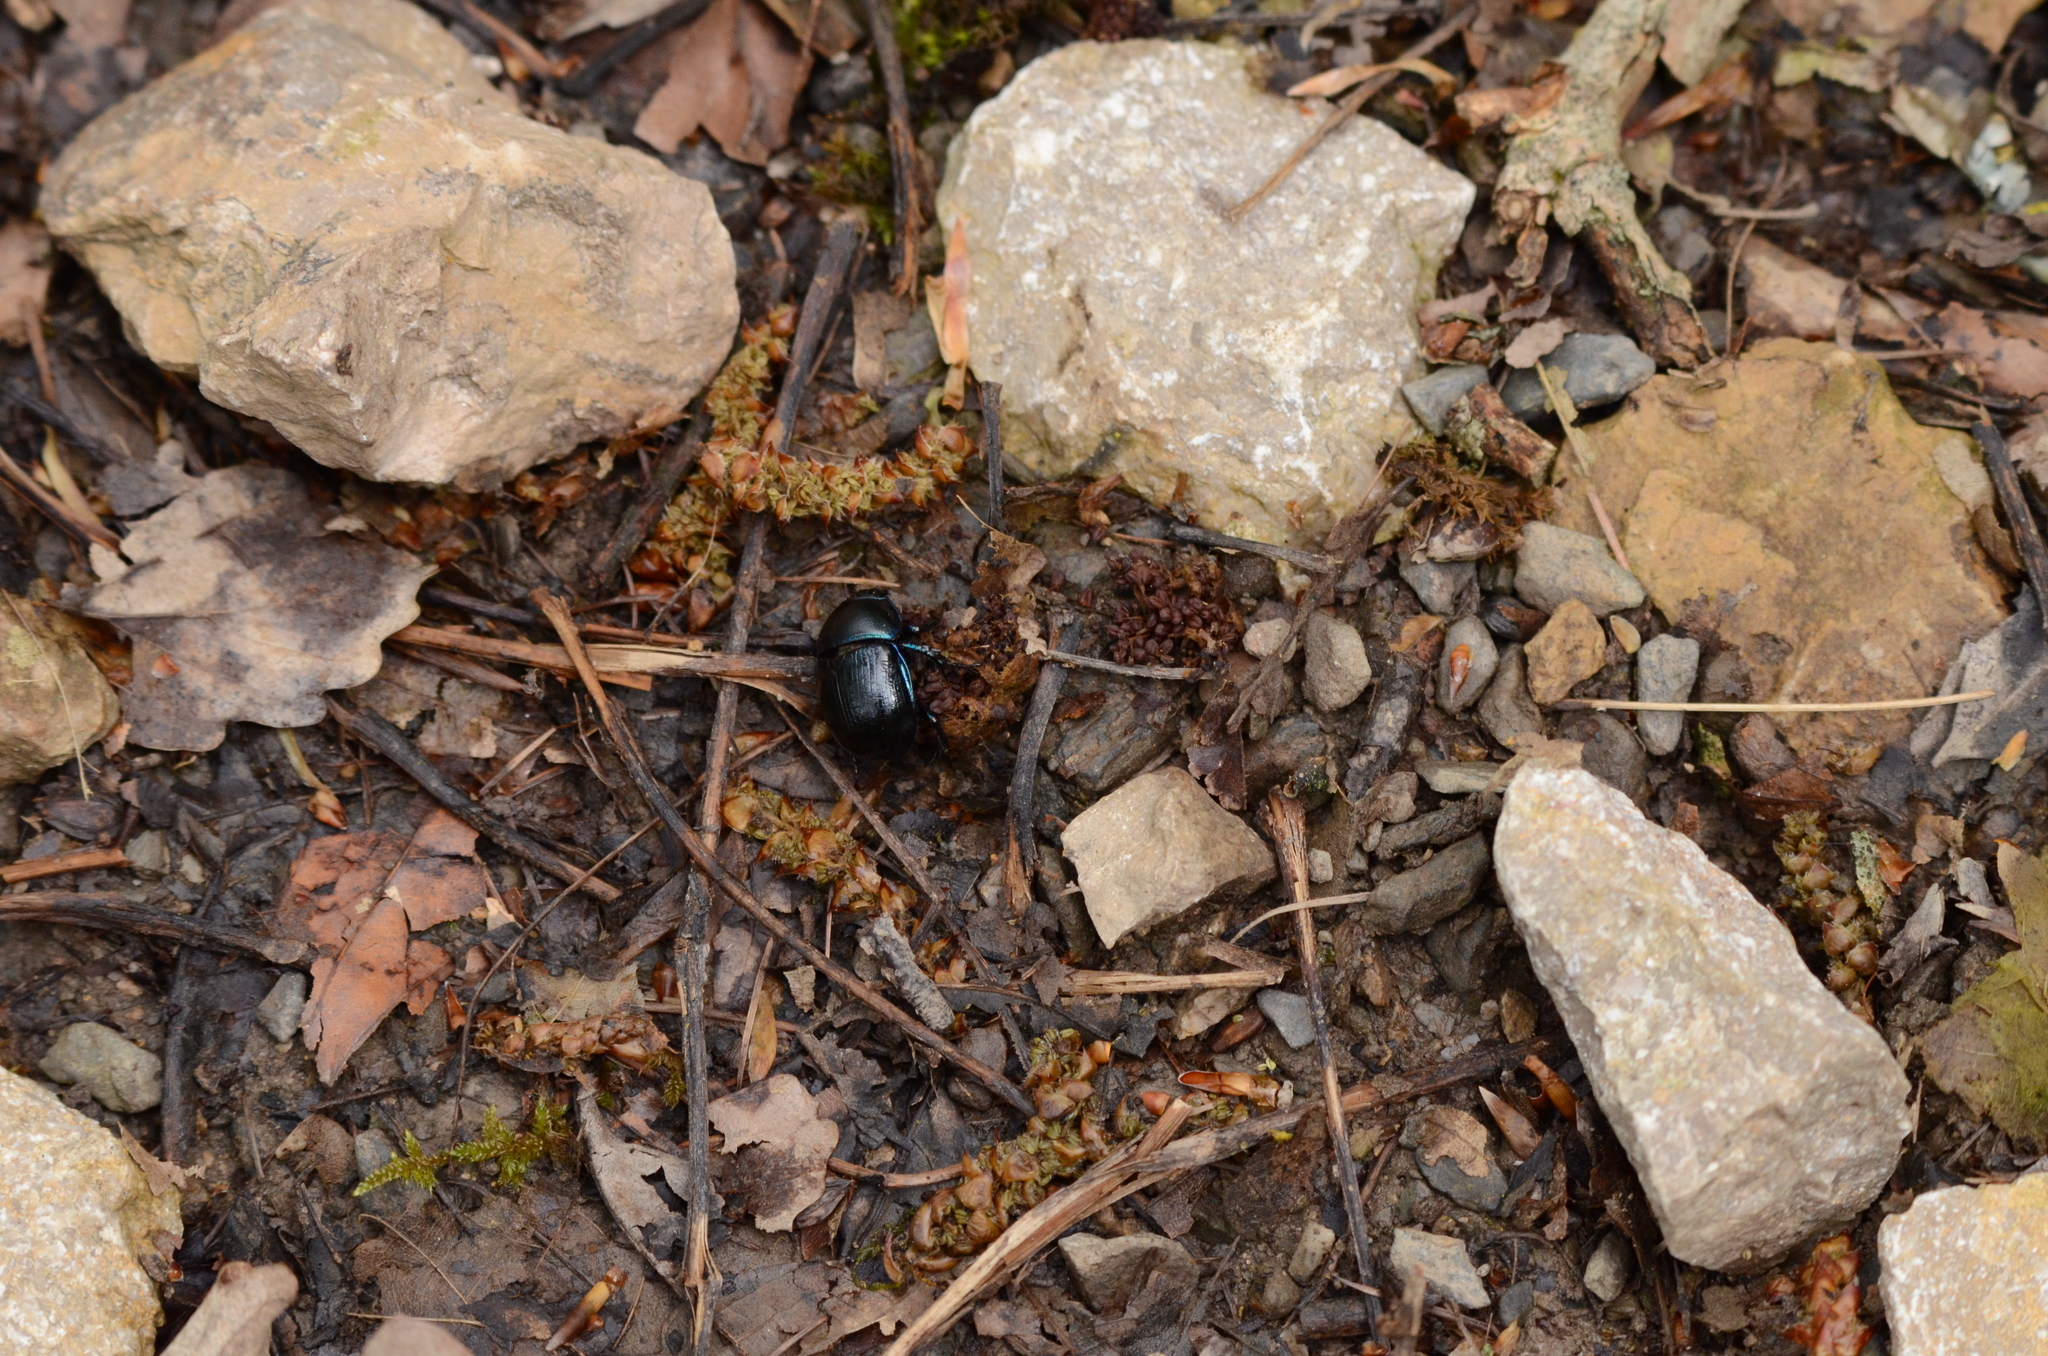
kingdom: Animalia
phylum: Arthropoda
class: Insecta
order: Coleoptera
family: Geotrupidae
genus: Anoplotrupes
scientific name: Anoplotrupes stercorosus
